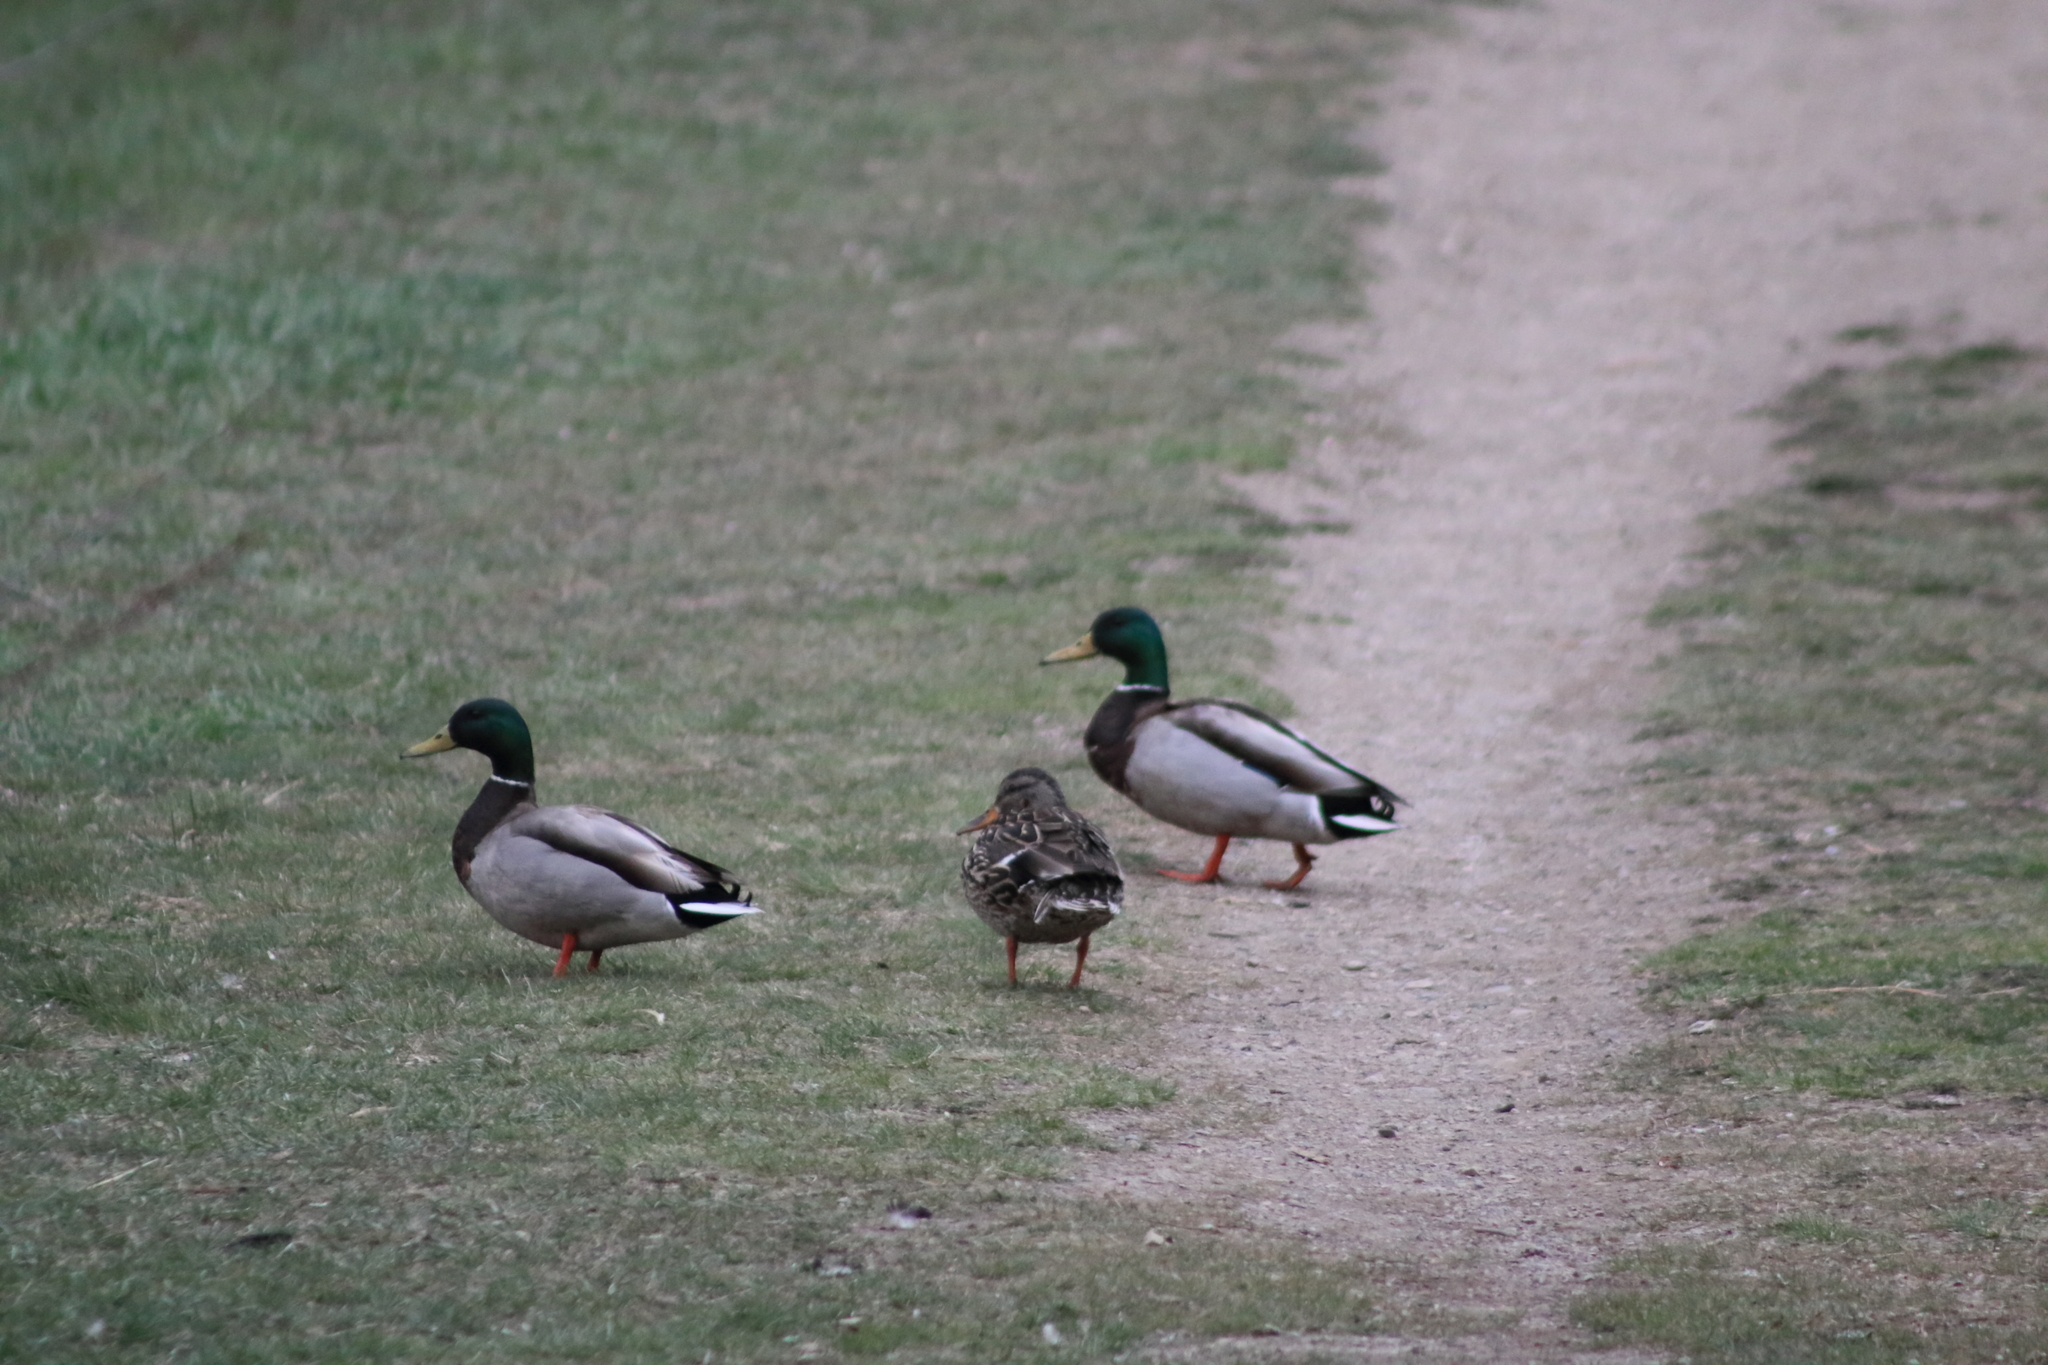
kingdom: Animalia
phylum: Chordata
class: Aves
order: Anseriformes
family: Anatidae
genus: Anas
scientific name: Anas platyrhynchos
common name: Mallard
